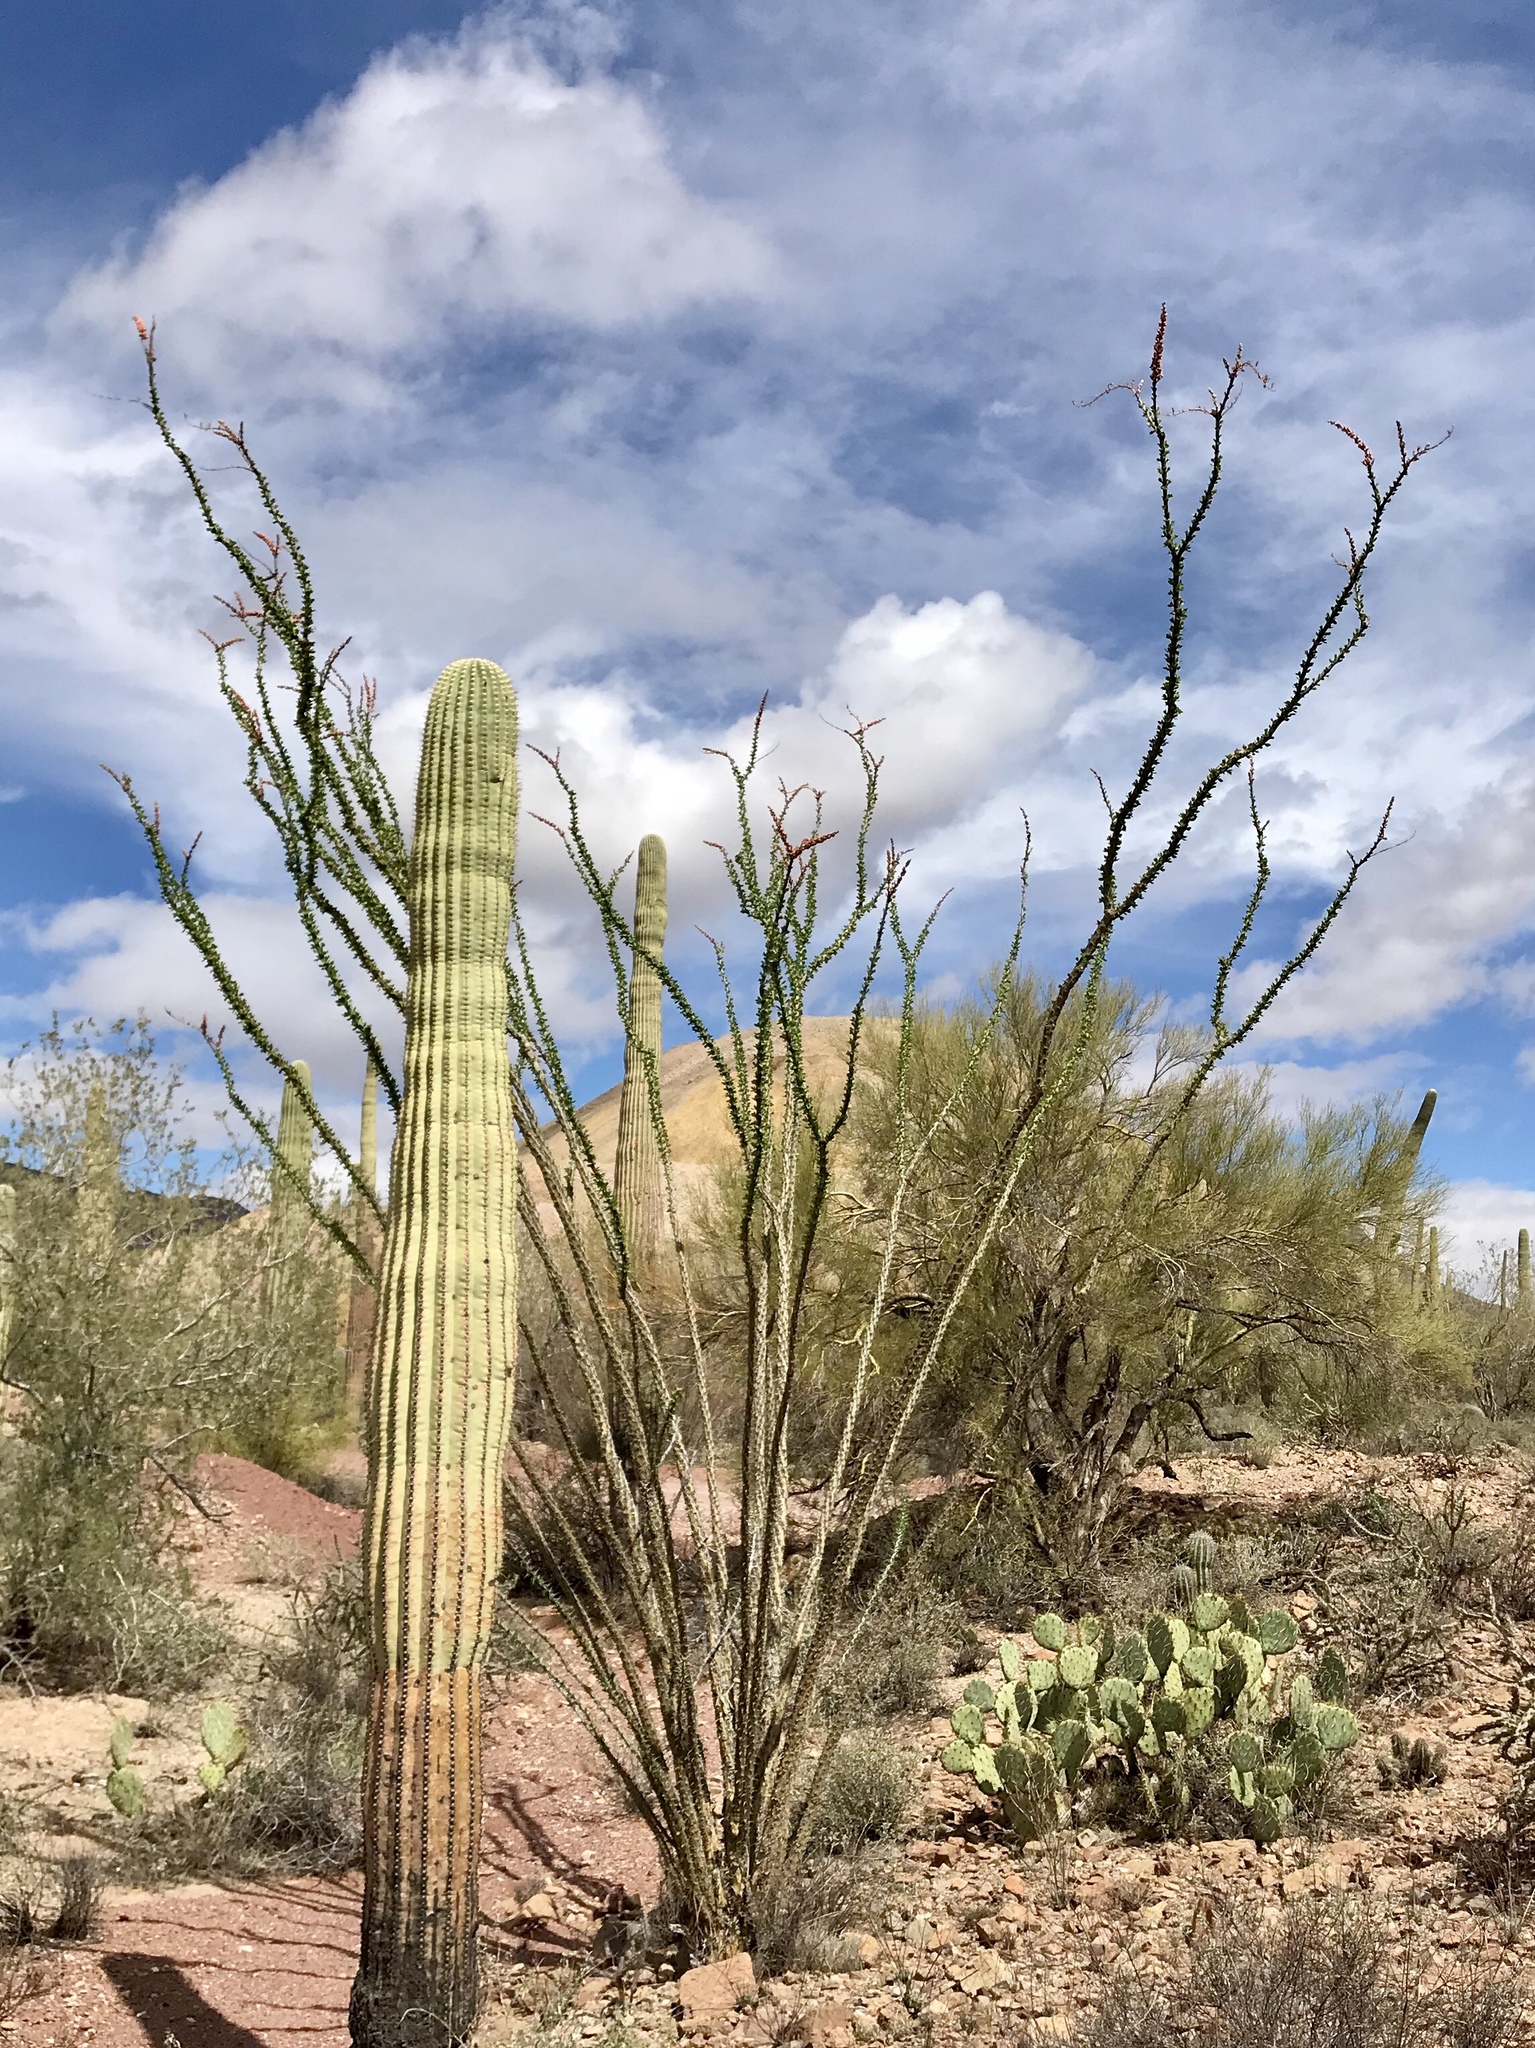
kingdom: Plantae
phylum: Tracheophyta
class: Magnoliopsida
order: Ericales
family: Fouquieriaceae
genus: Fouquieria
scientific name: Fouquieria splendens
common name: Vine-cactus
